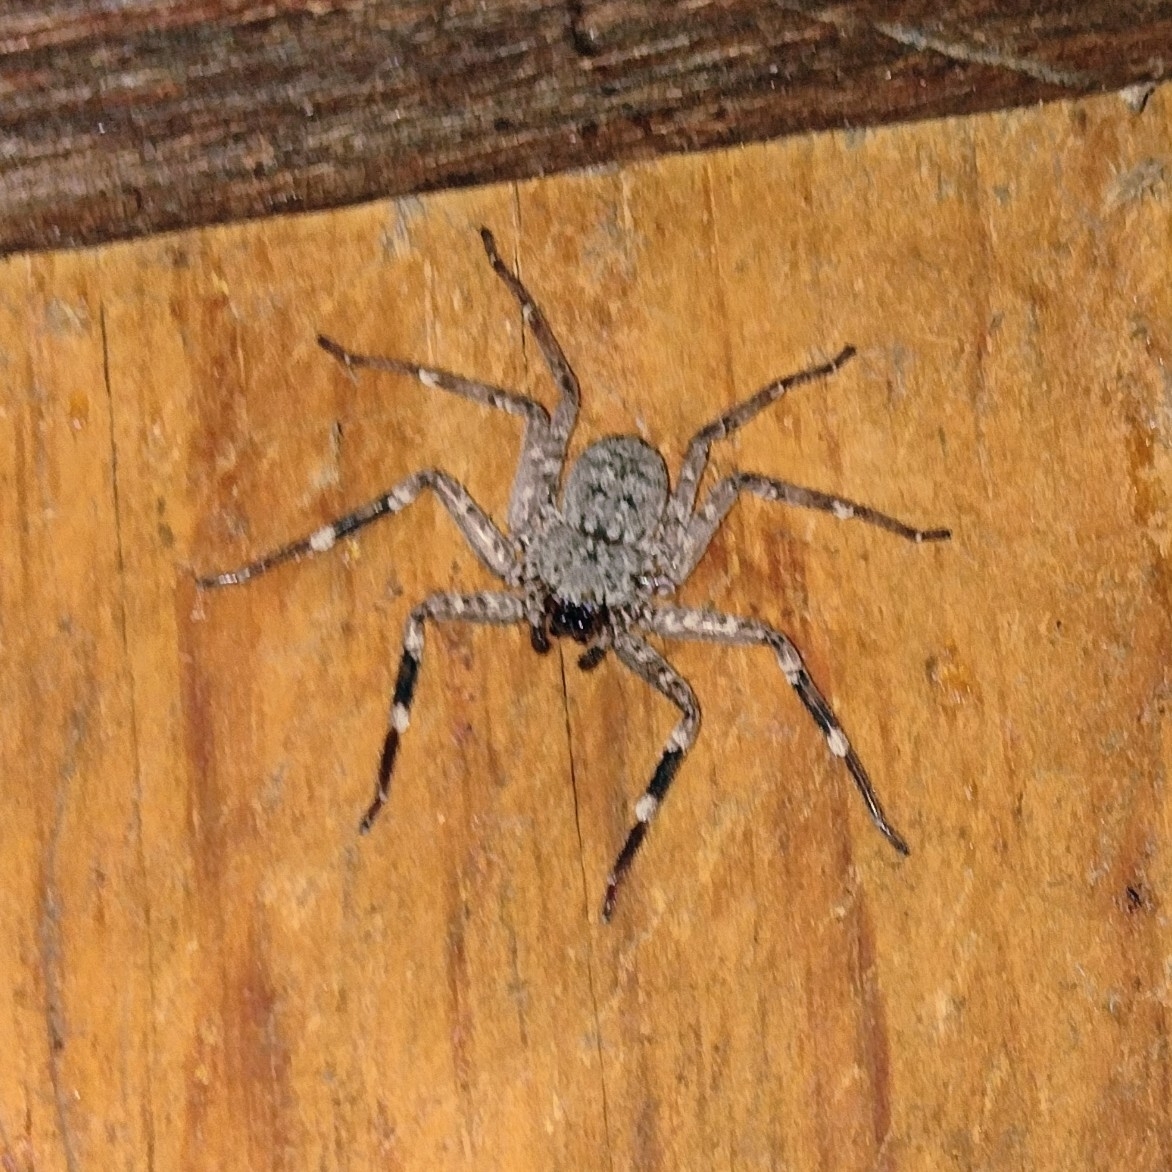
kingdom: Animalia
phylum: Arthropoda
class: Arachnida
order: Araneae
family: Selenopidae
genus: Selenops
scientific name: Selenops mexicanus
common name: Wall crab spiders
